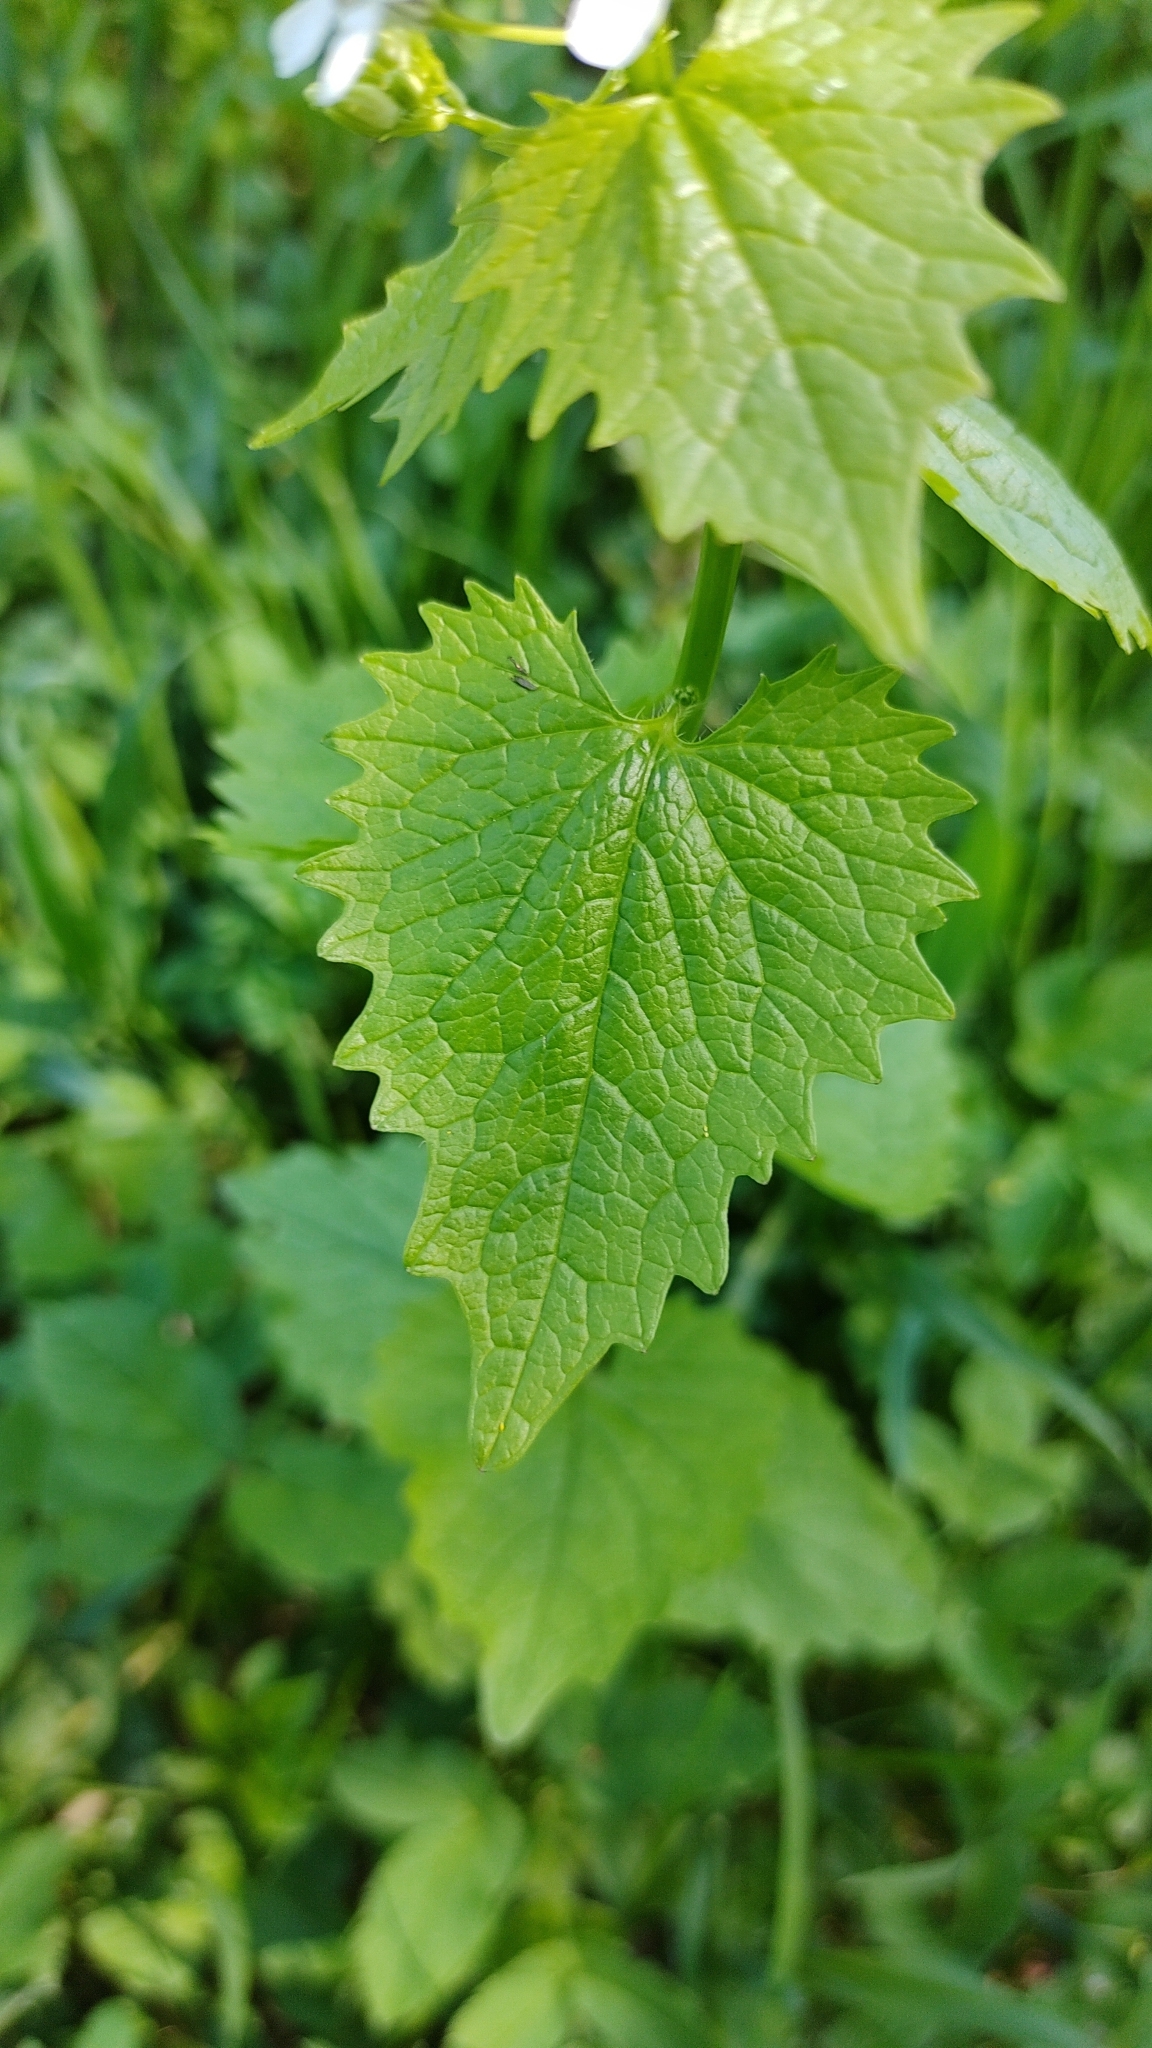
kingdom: Plantae
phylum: Tracheophyta
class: Magnoliopsida
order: Brassicales
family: Brassicaceae
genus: Alliaria
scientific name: Alliaria petiolata
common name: Garlic mustard
